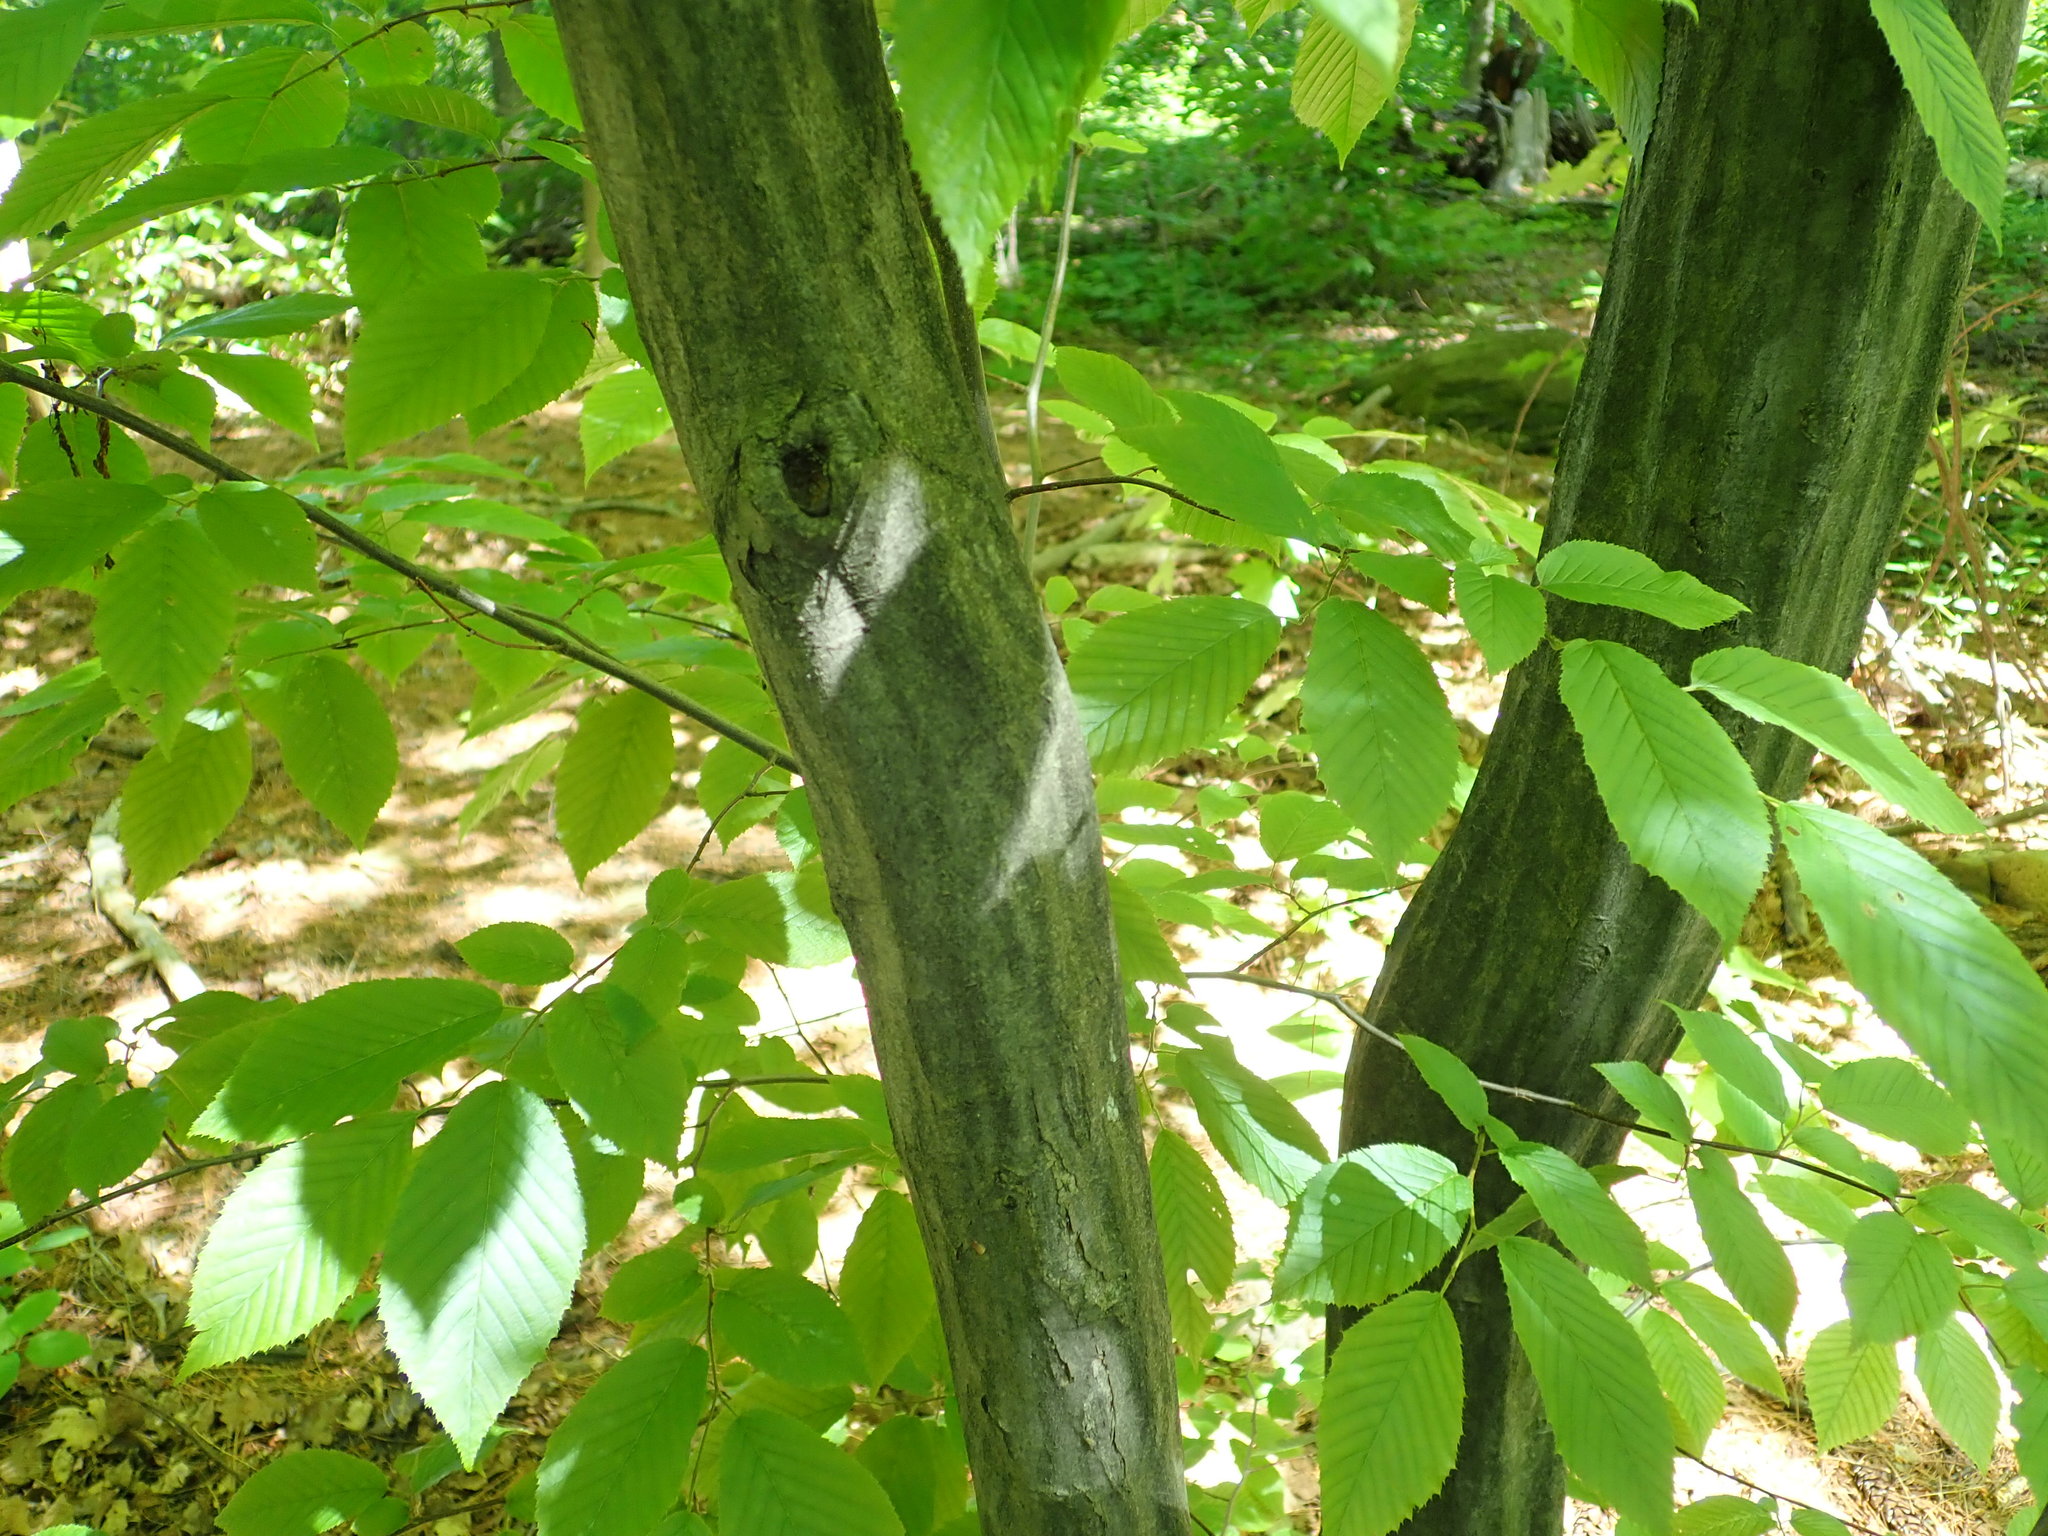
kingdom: Plantae
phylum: Tracheophyta
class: Magnoliopsida
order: Fagales
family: Betulaceae
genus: Carpinus
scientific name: Carpinus caroliniana
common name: American hornbeam
